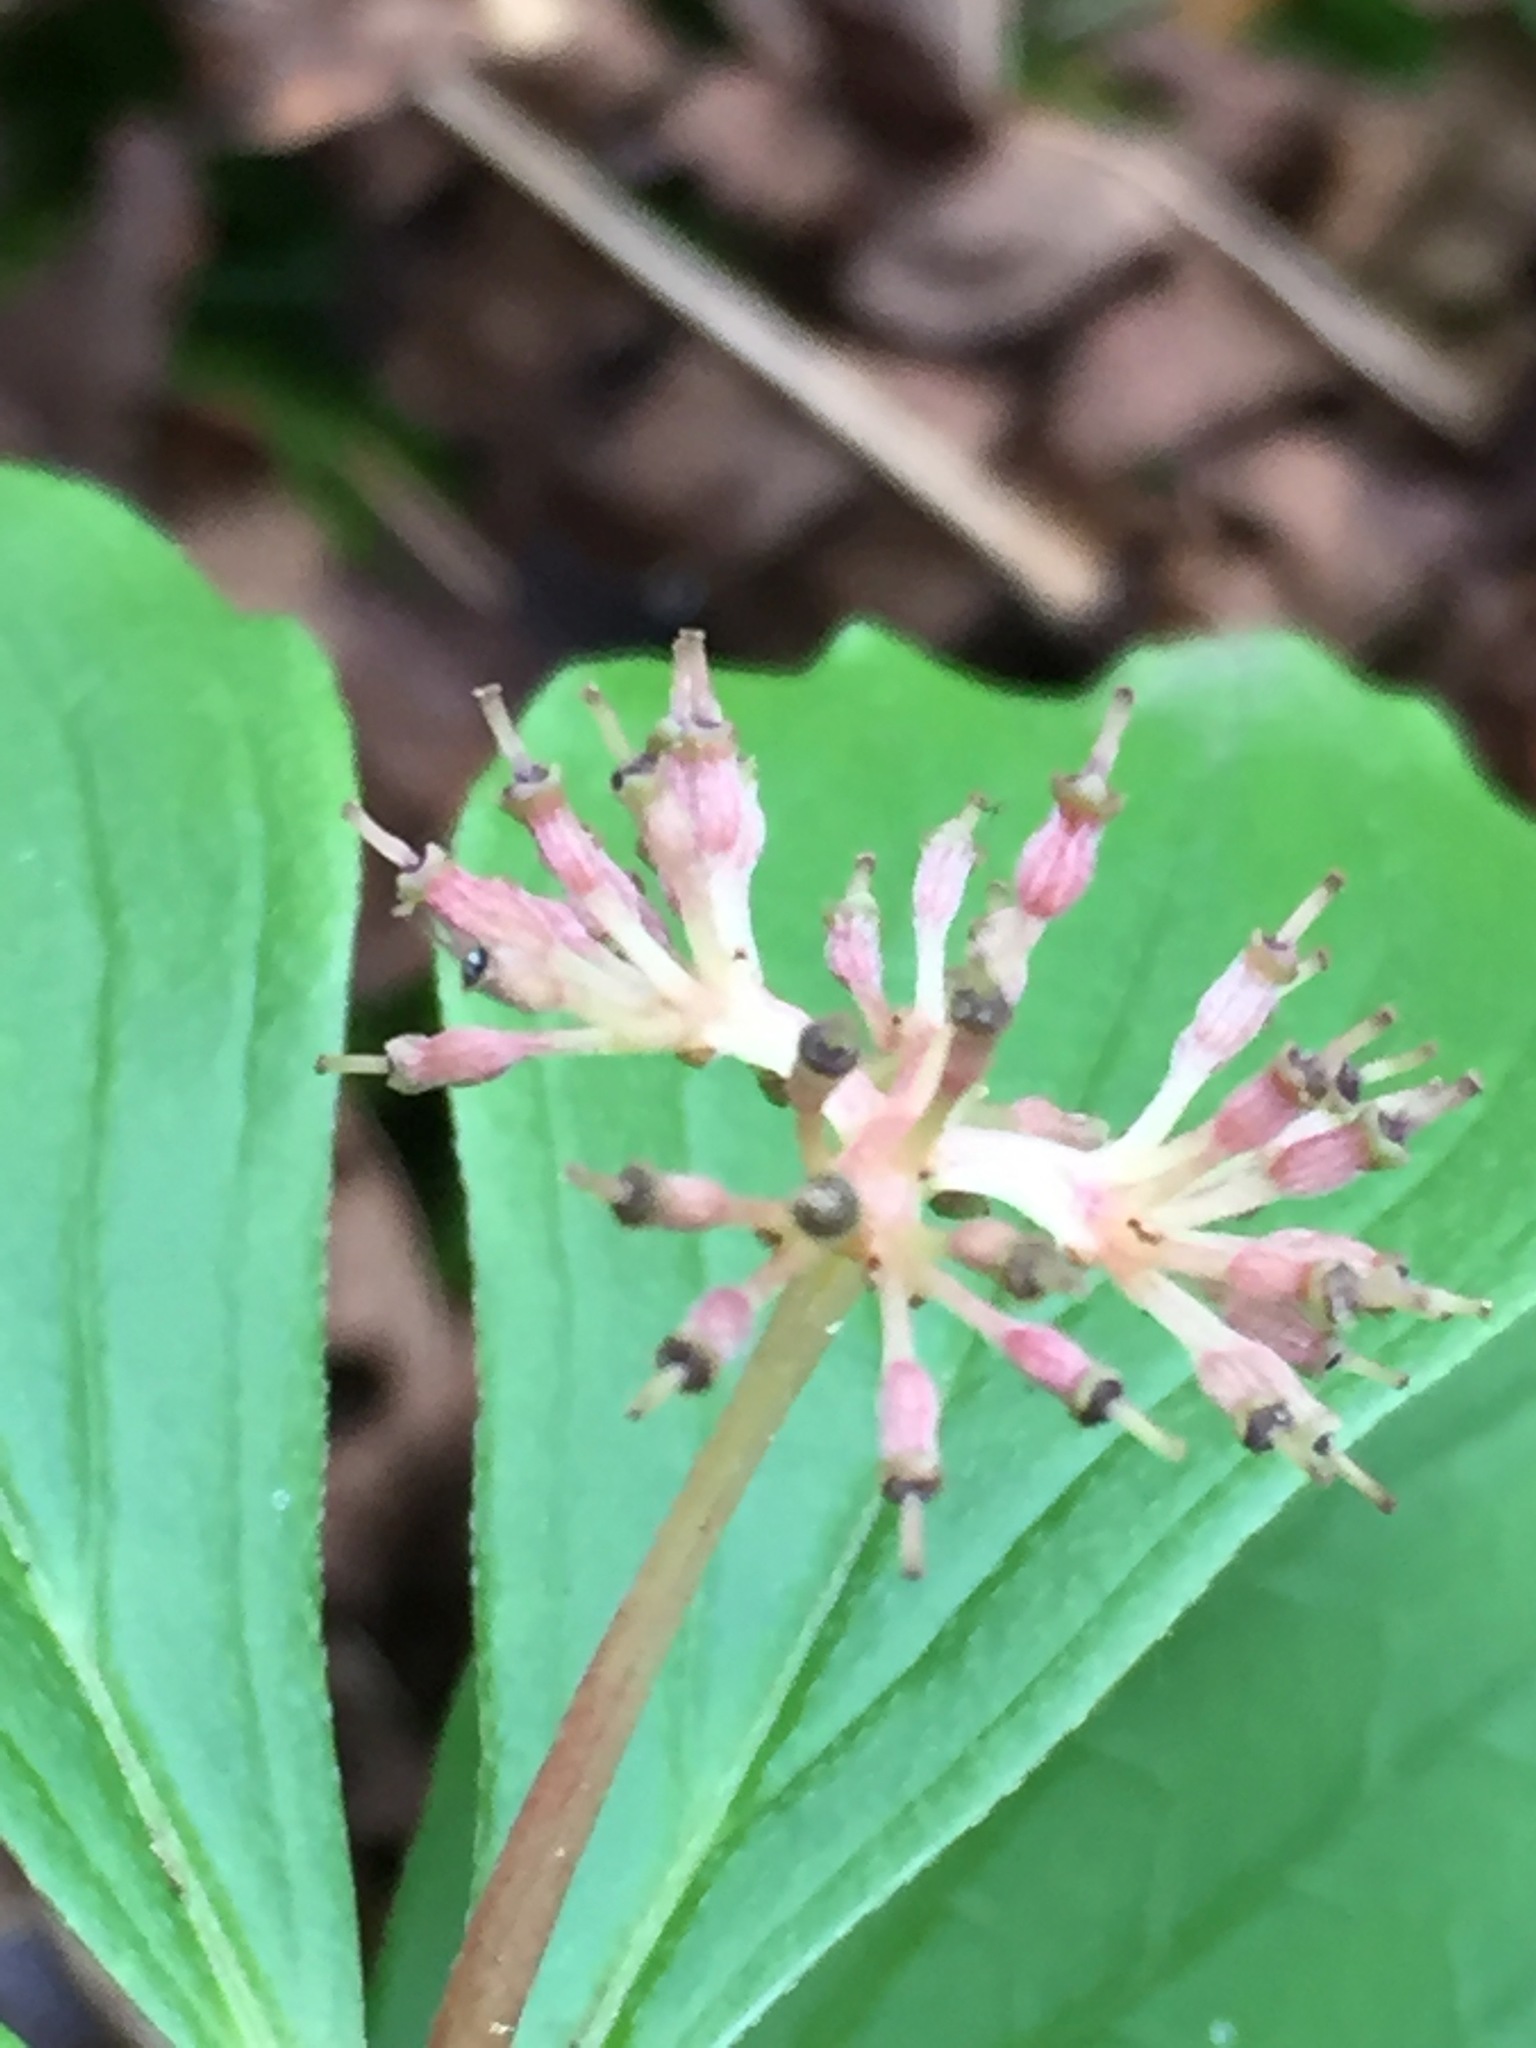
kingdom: Plantae
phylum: Tracheophyta
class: Magnoliopsida
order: Cornales
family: Cornaceae
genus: Cornus
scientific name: Cornus canadensis
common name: Creeping dogwood
